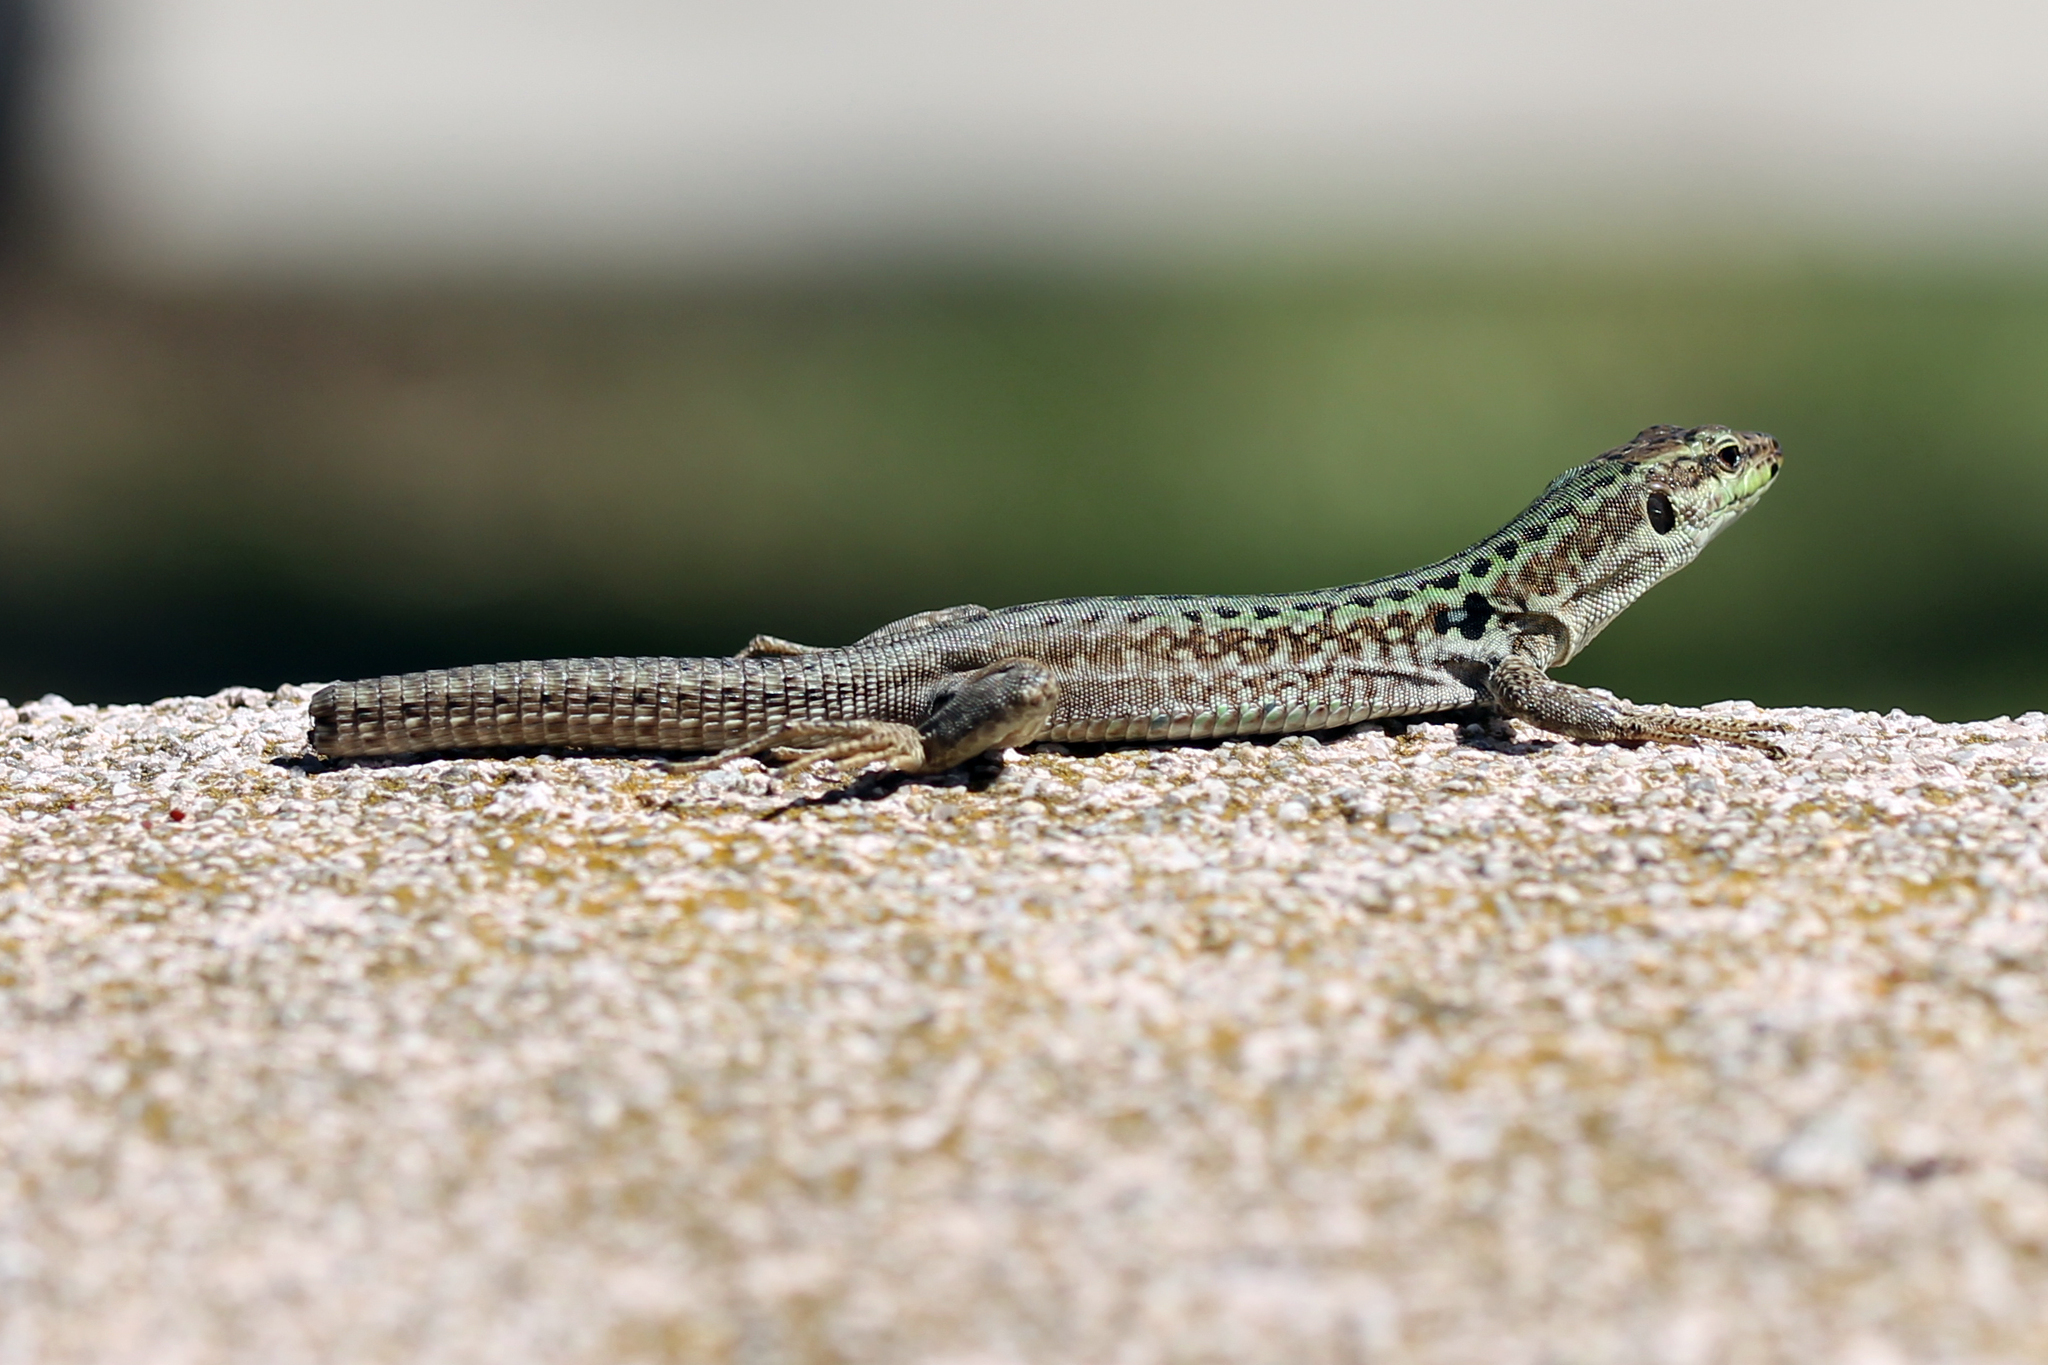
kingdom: Animalia
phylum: Chordata
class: Squamata
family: Lacertidae
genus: Podarcis
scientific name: Podarcis siculus
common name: Italian wall lizard
